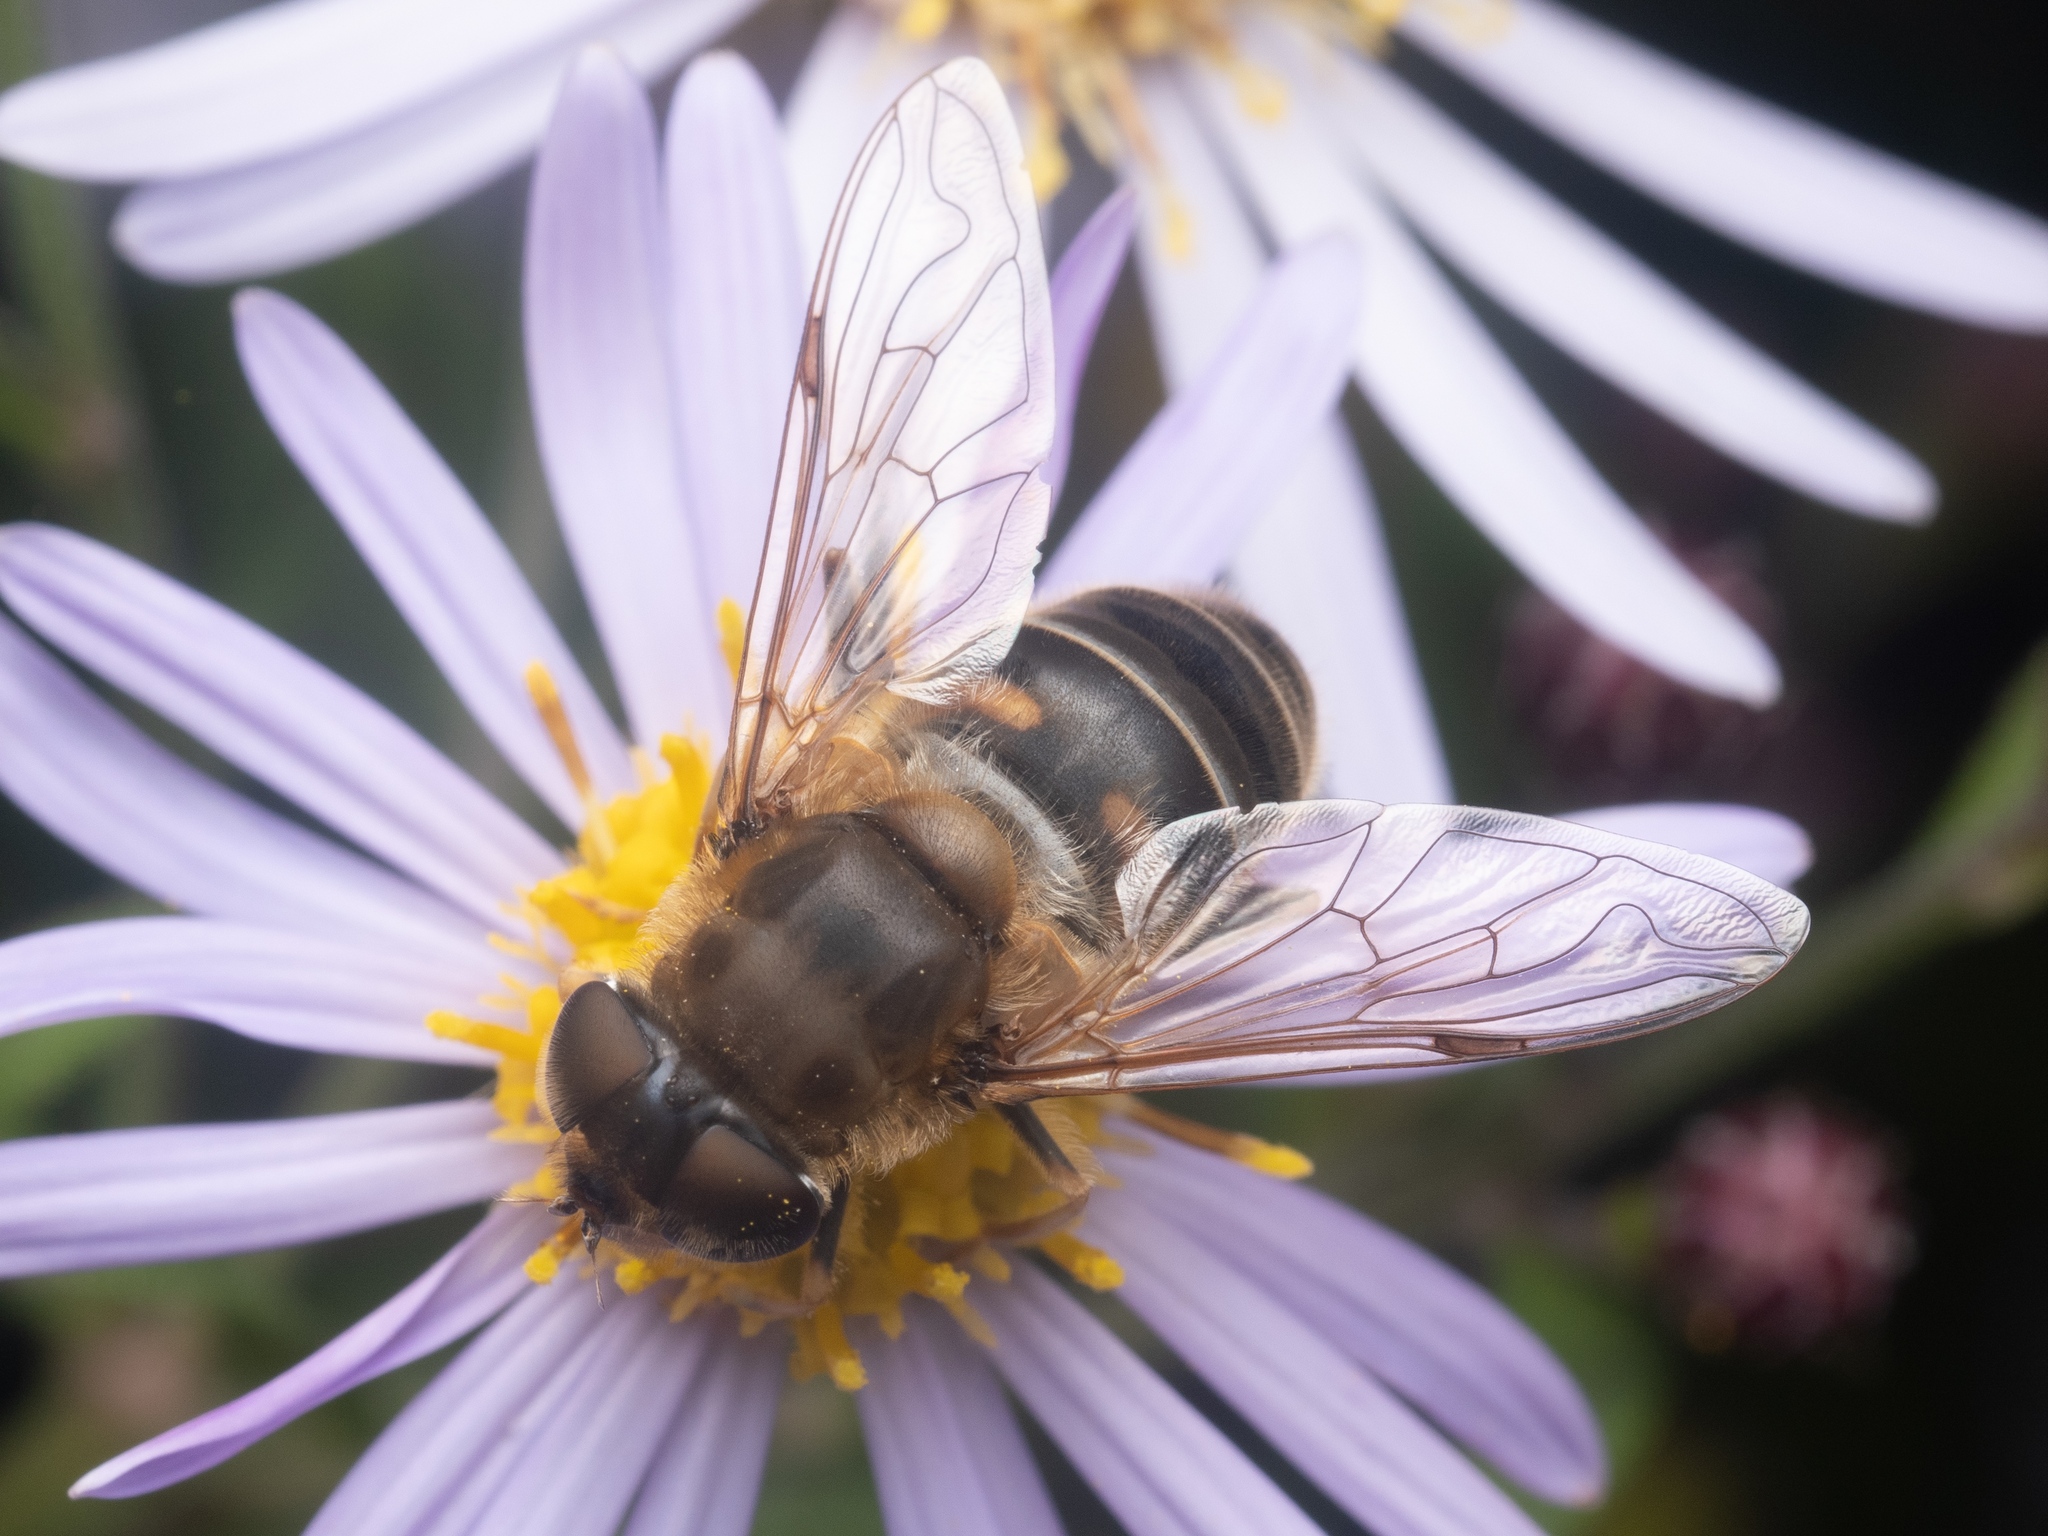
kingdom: Animalia
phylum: Arthropoda
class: Insecta
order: Diptera
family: Syrphidae
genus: Eristalis
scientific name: Eristalis pertinax
